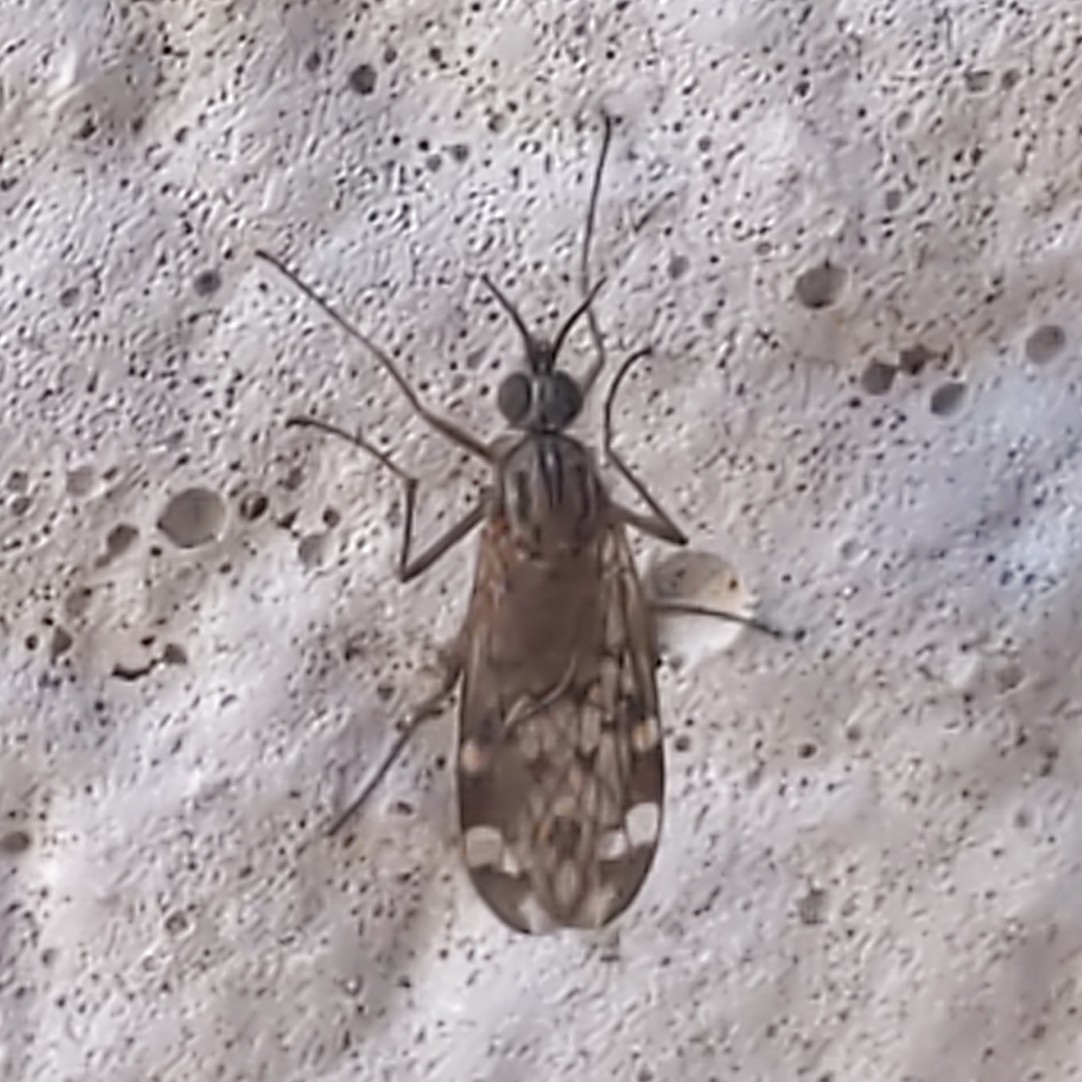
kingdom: Animalia
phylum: Arthropoda
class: Insecta
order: Diptera
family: Anisopodidae
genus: Sylvicola
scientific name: Sylvicola alternata
